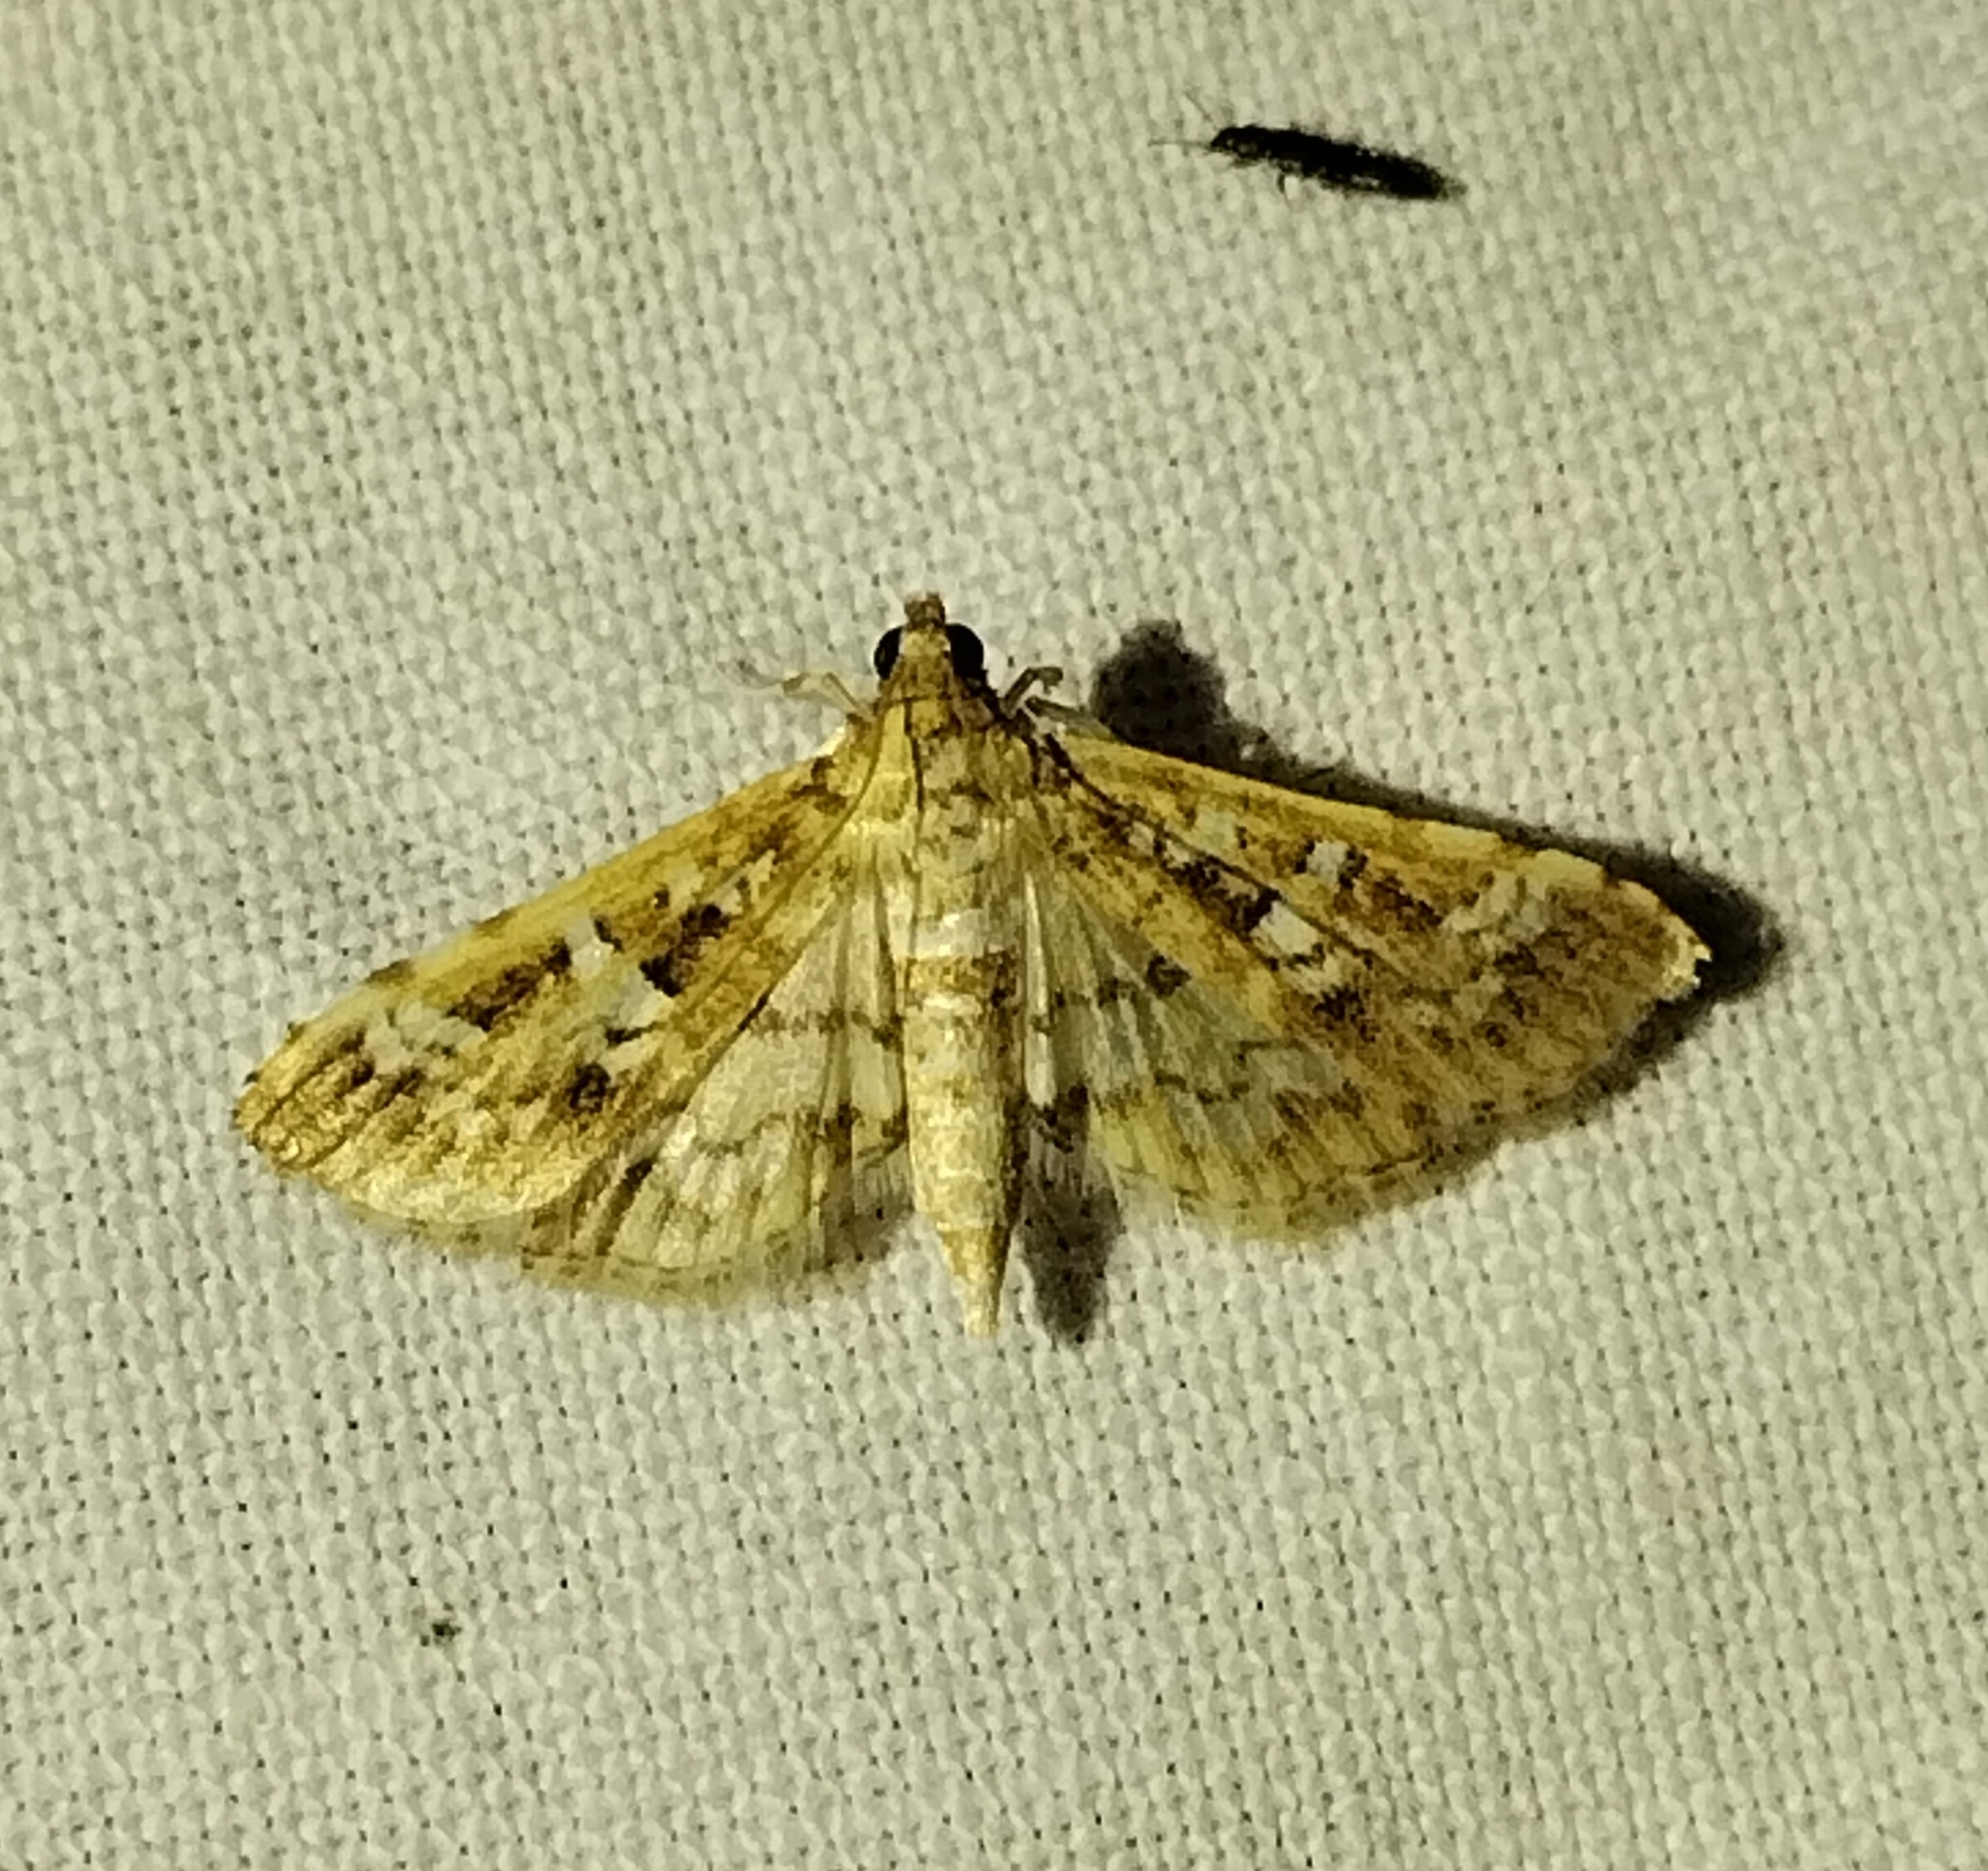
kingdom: Animalia
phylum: Arthropoda
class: Insecta
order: Lepidoptera
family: Crambidae
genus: Samea
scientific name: Samea multiplicalis
